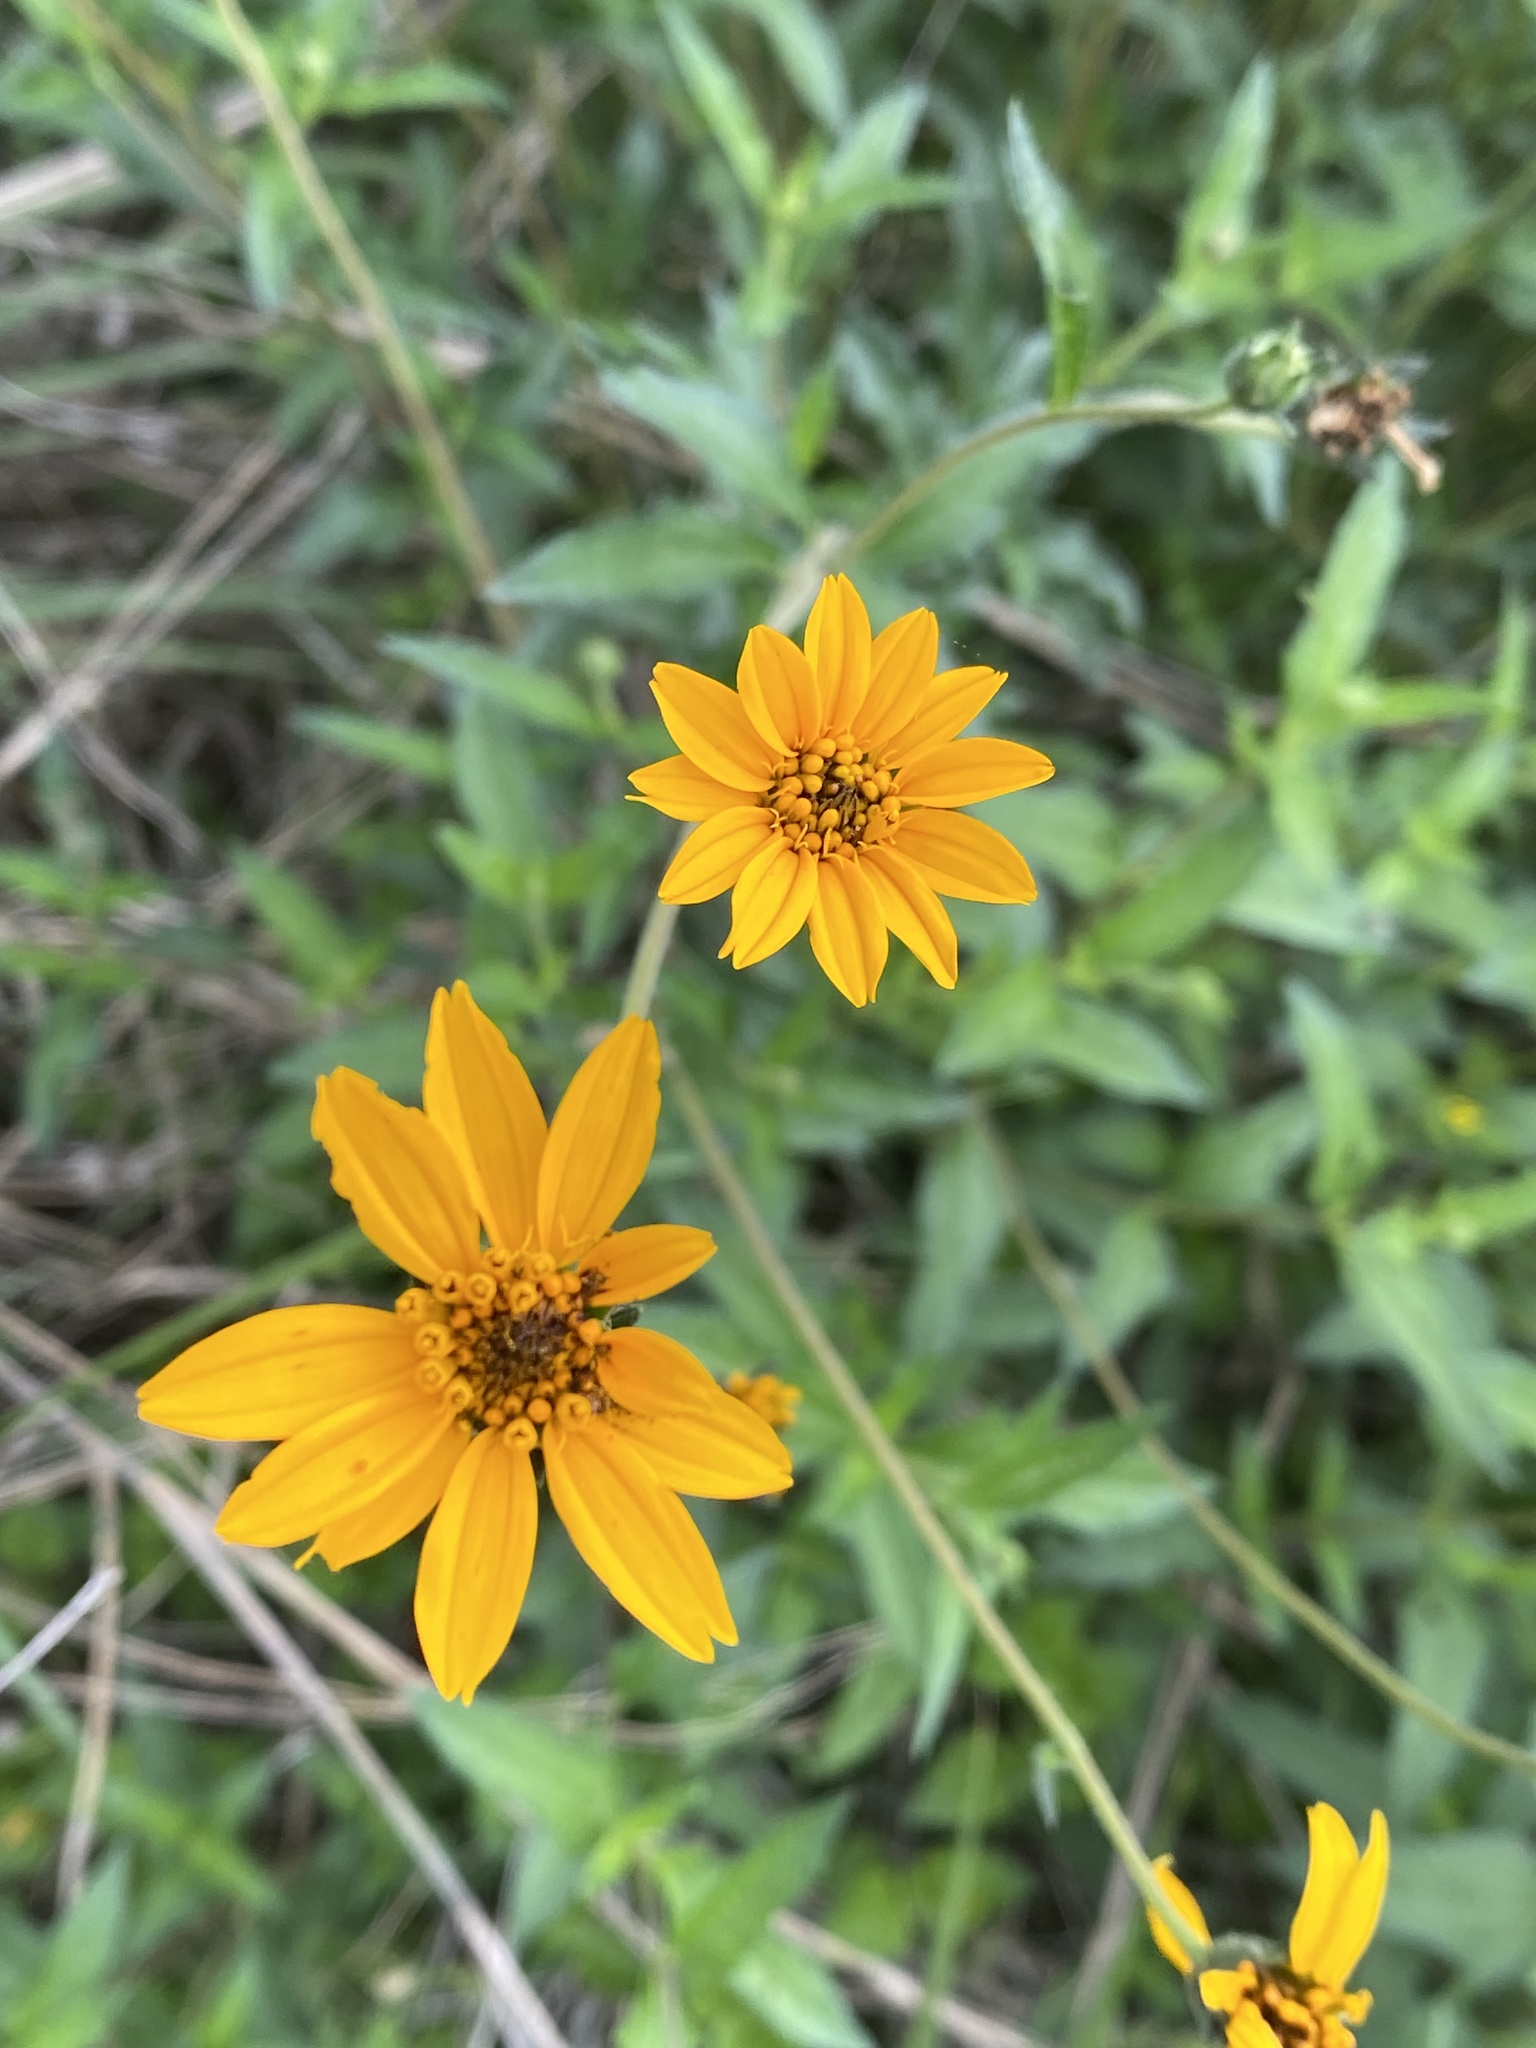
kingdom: Plantae
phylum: Tracheophyta
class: Magnoliopsida
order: Asterales
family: Asteraceae
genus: Wedelia
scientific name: Wedelia acapulcensis
